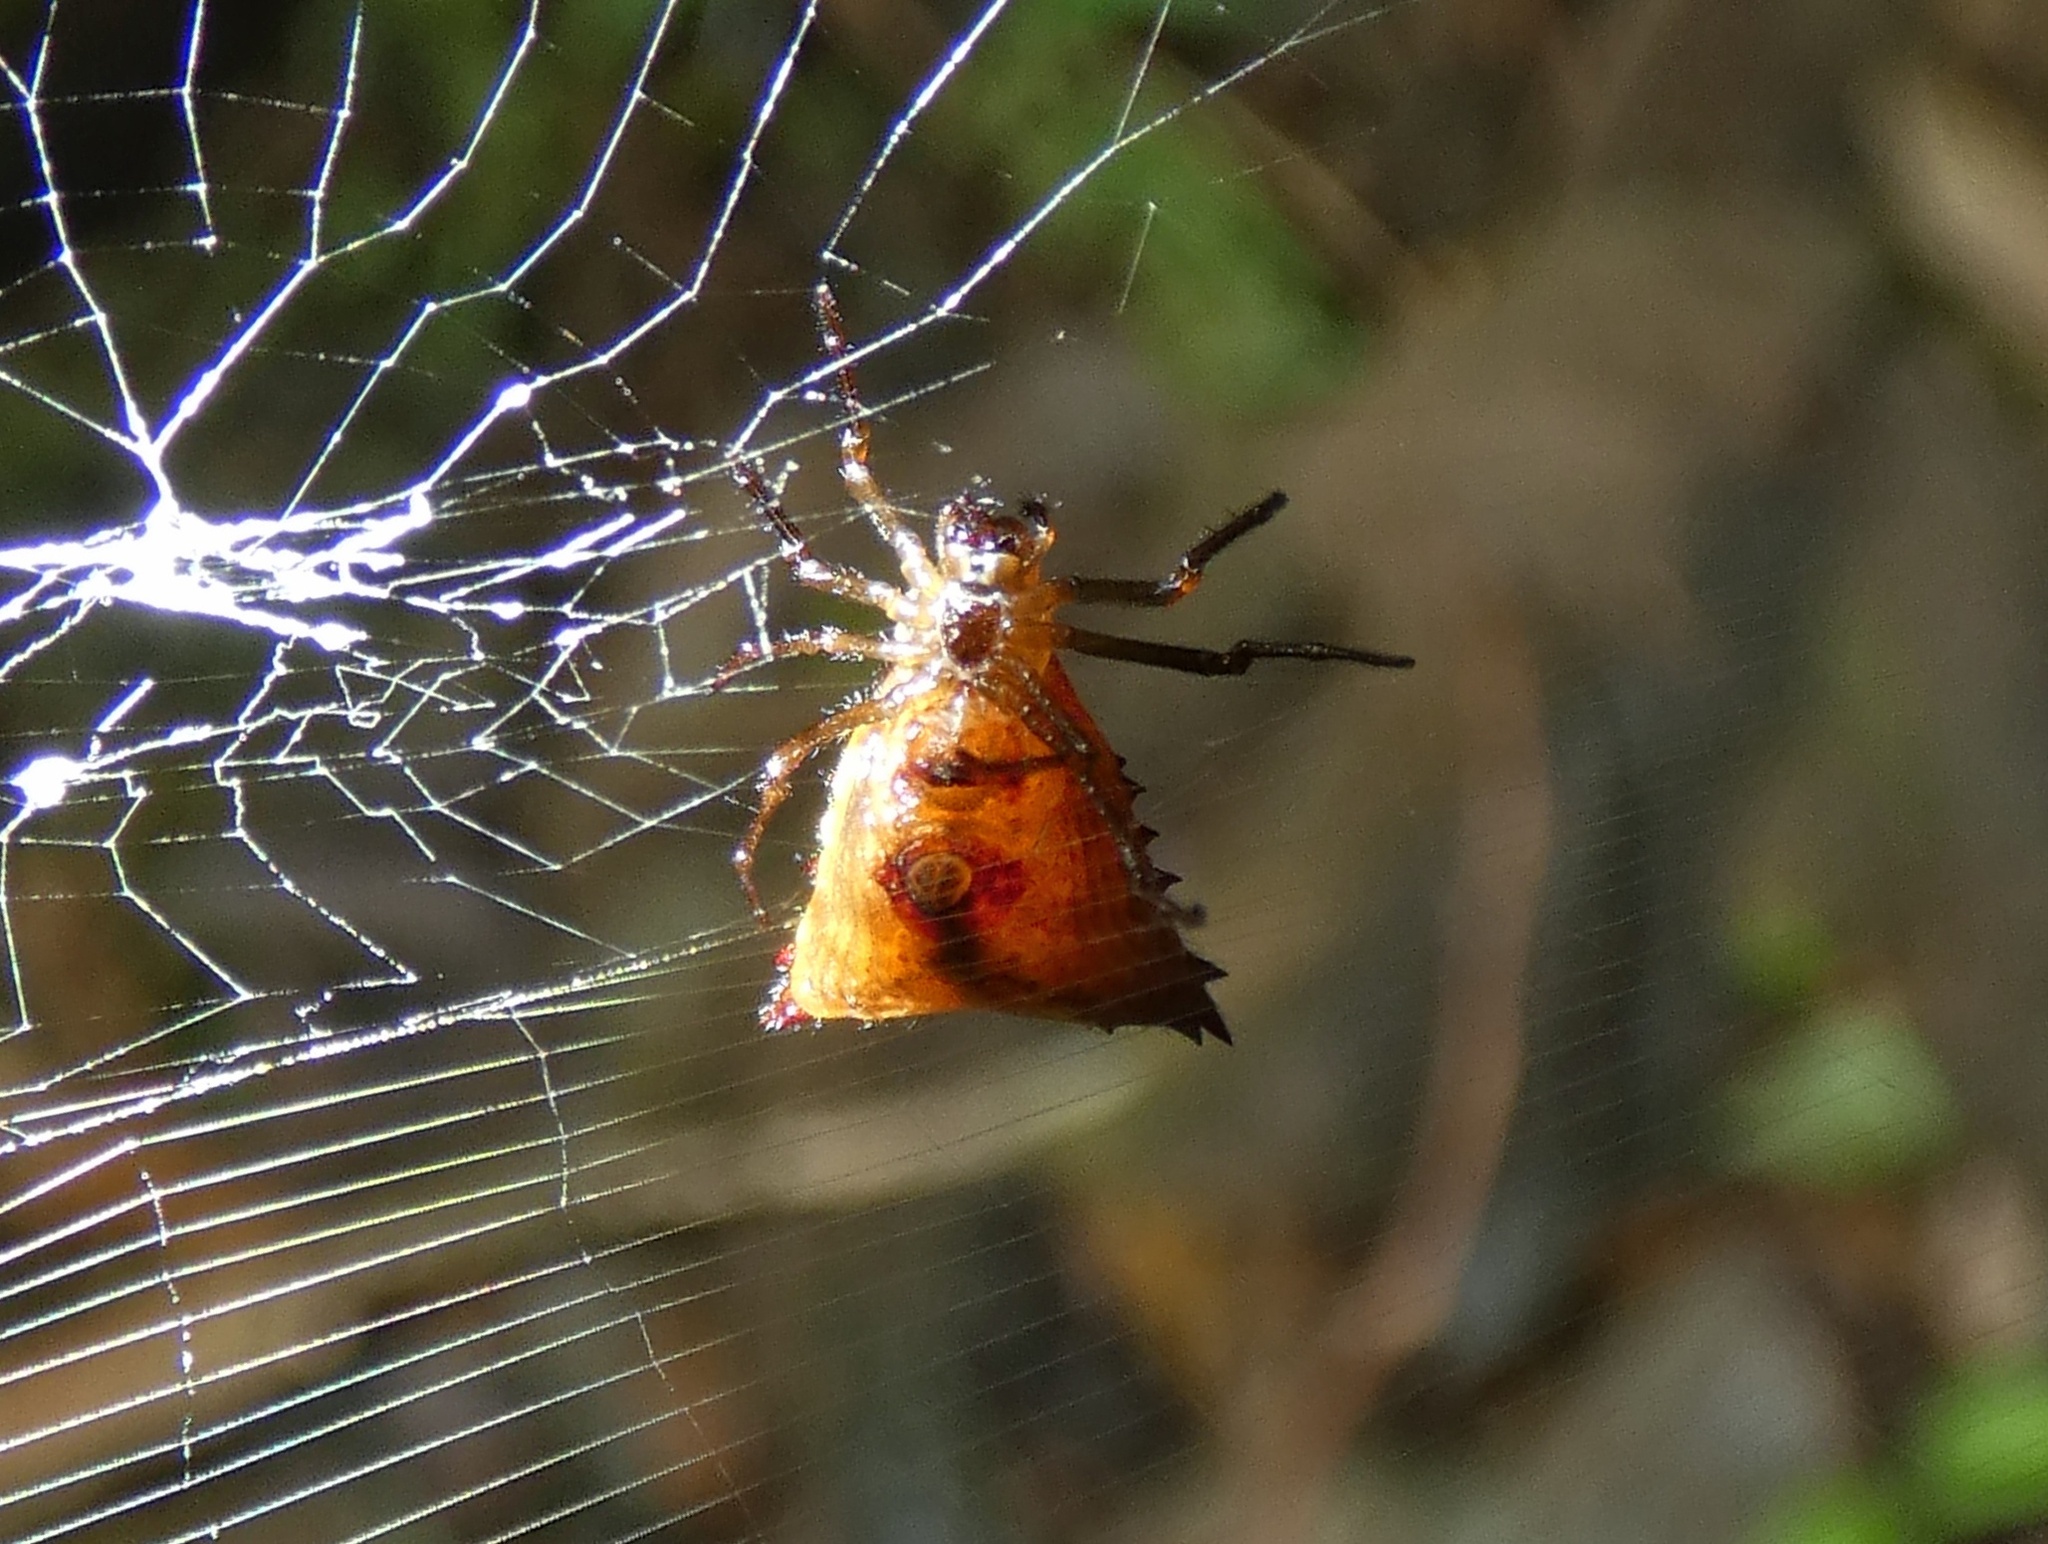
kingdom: Animalia
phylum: Arthropoda
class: Arachnida
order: Araneae
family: Araneidae
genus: Micrathena
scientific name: Micrathena triangularis
